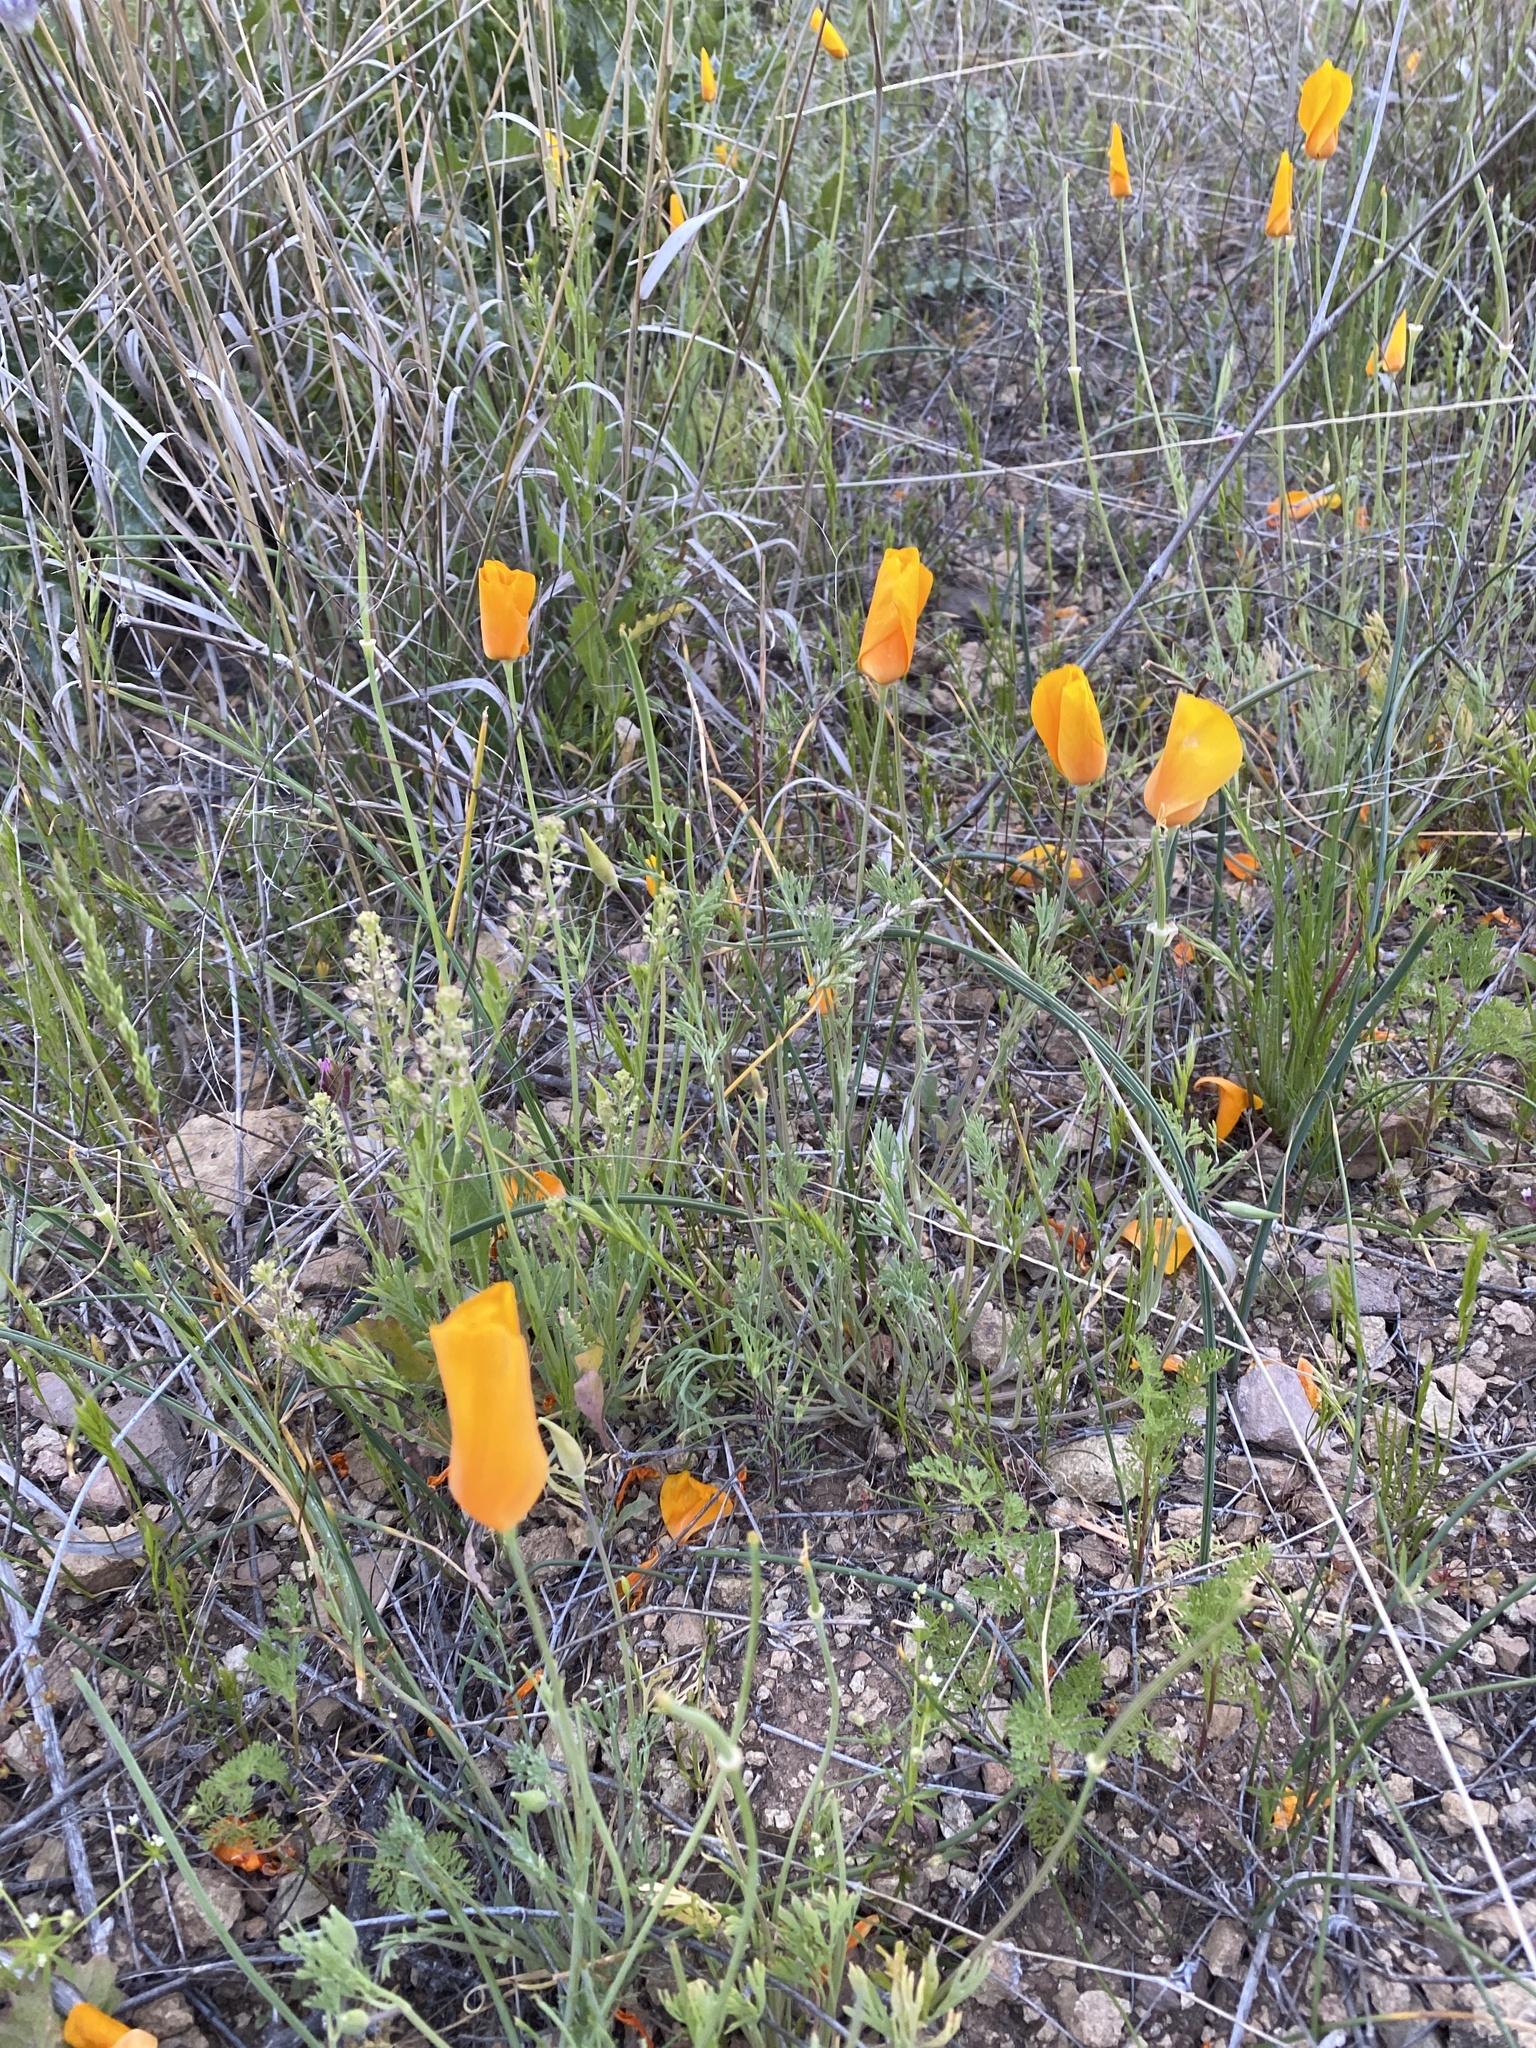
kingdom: Plantae
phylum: Tracheophyta
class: Magnoliopsida
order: Ranunculales
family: Papaveraceae
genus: Eschscholzia
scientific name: Eschscholzia californica
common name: California poppy
